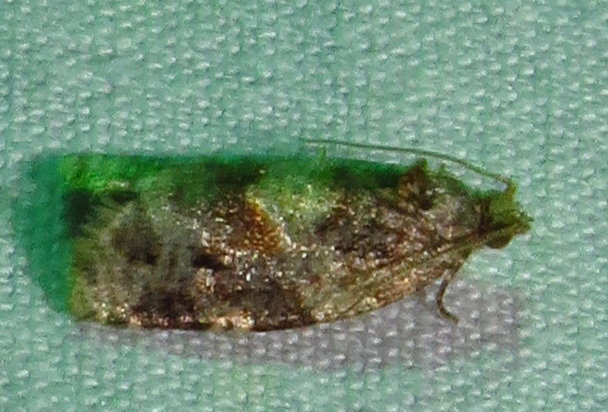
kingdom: Animalia
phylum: Arthropoda
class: Insecta
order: Lepidoptera
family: Tortricidae
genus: Argyrotaenia
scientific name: Argyrotaenia velutinana
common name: Red-banded leafroller moth
